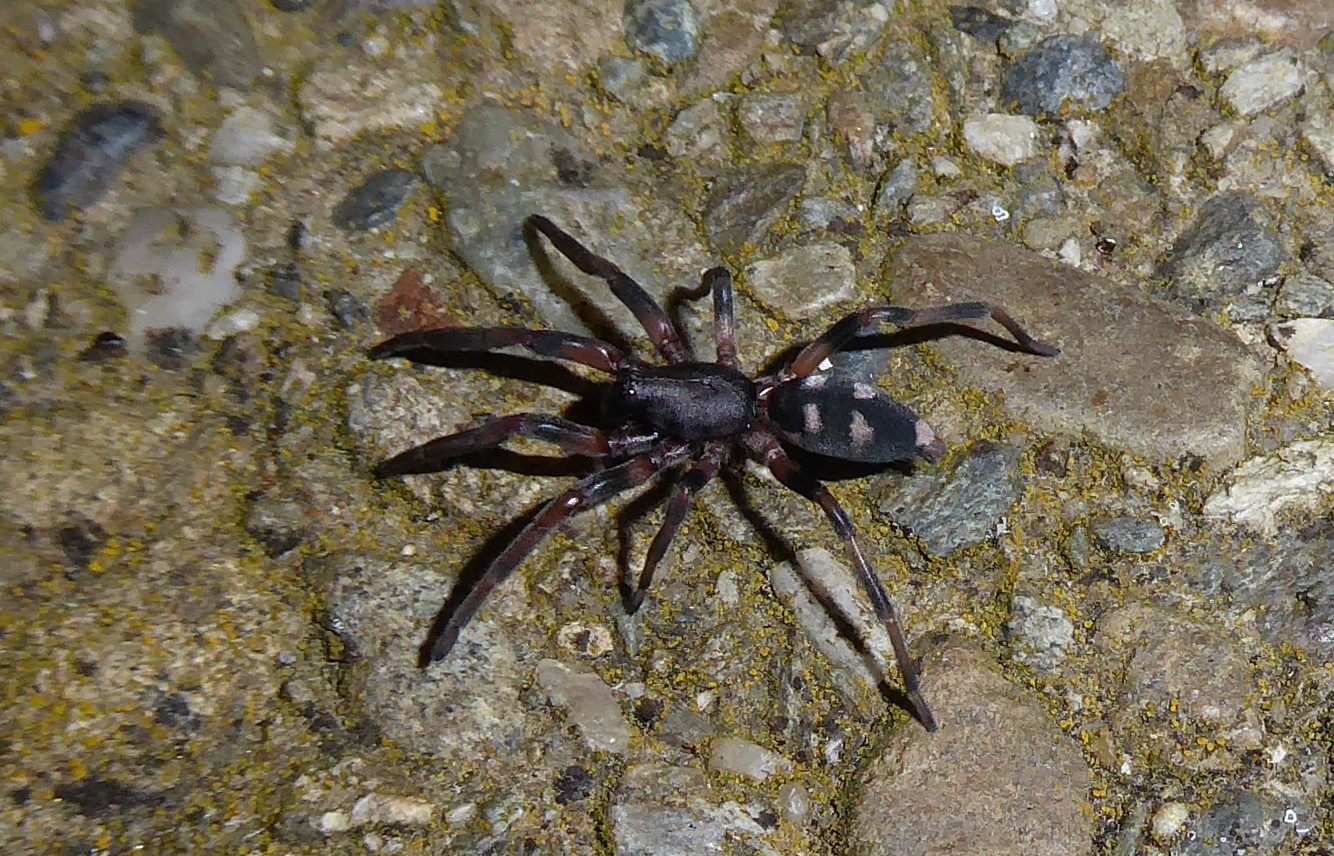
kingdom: Animalia
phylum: Arthropoda
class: Arachnida
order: Araneae
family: Lamponidae
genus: Lampona
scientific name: Lampona cylindrata
